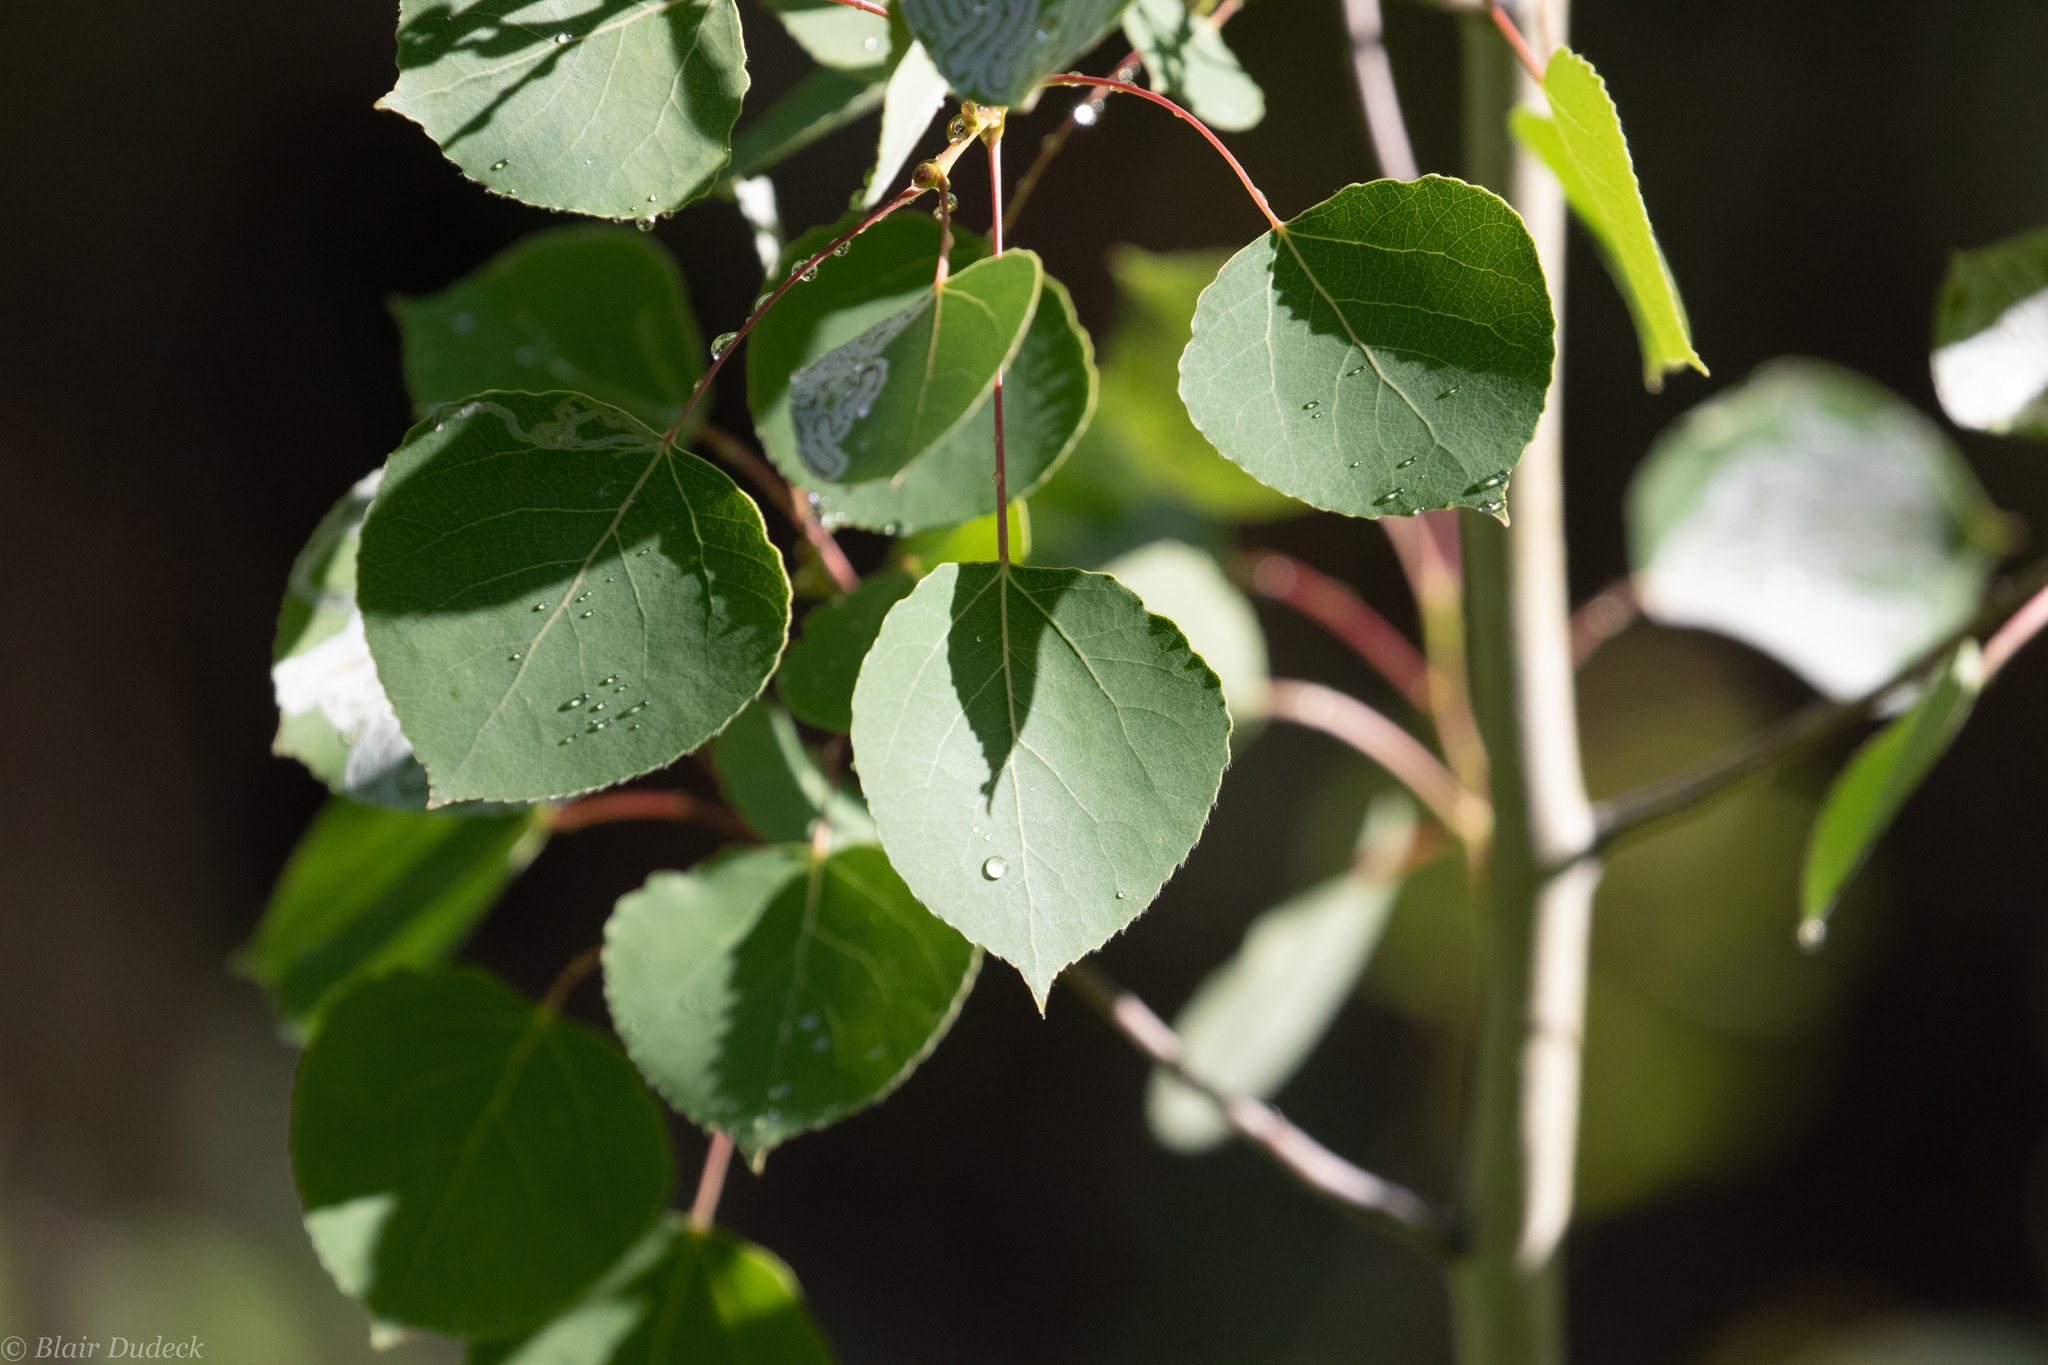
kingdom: Plantae
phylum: Tracheophyta
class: Magnoliopsida
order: Malpighiales
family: Salicaceae
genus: Populus
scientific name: Populus tremuloides
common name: Quaking aspen
